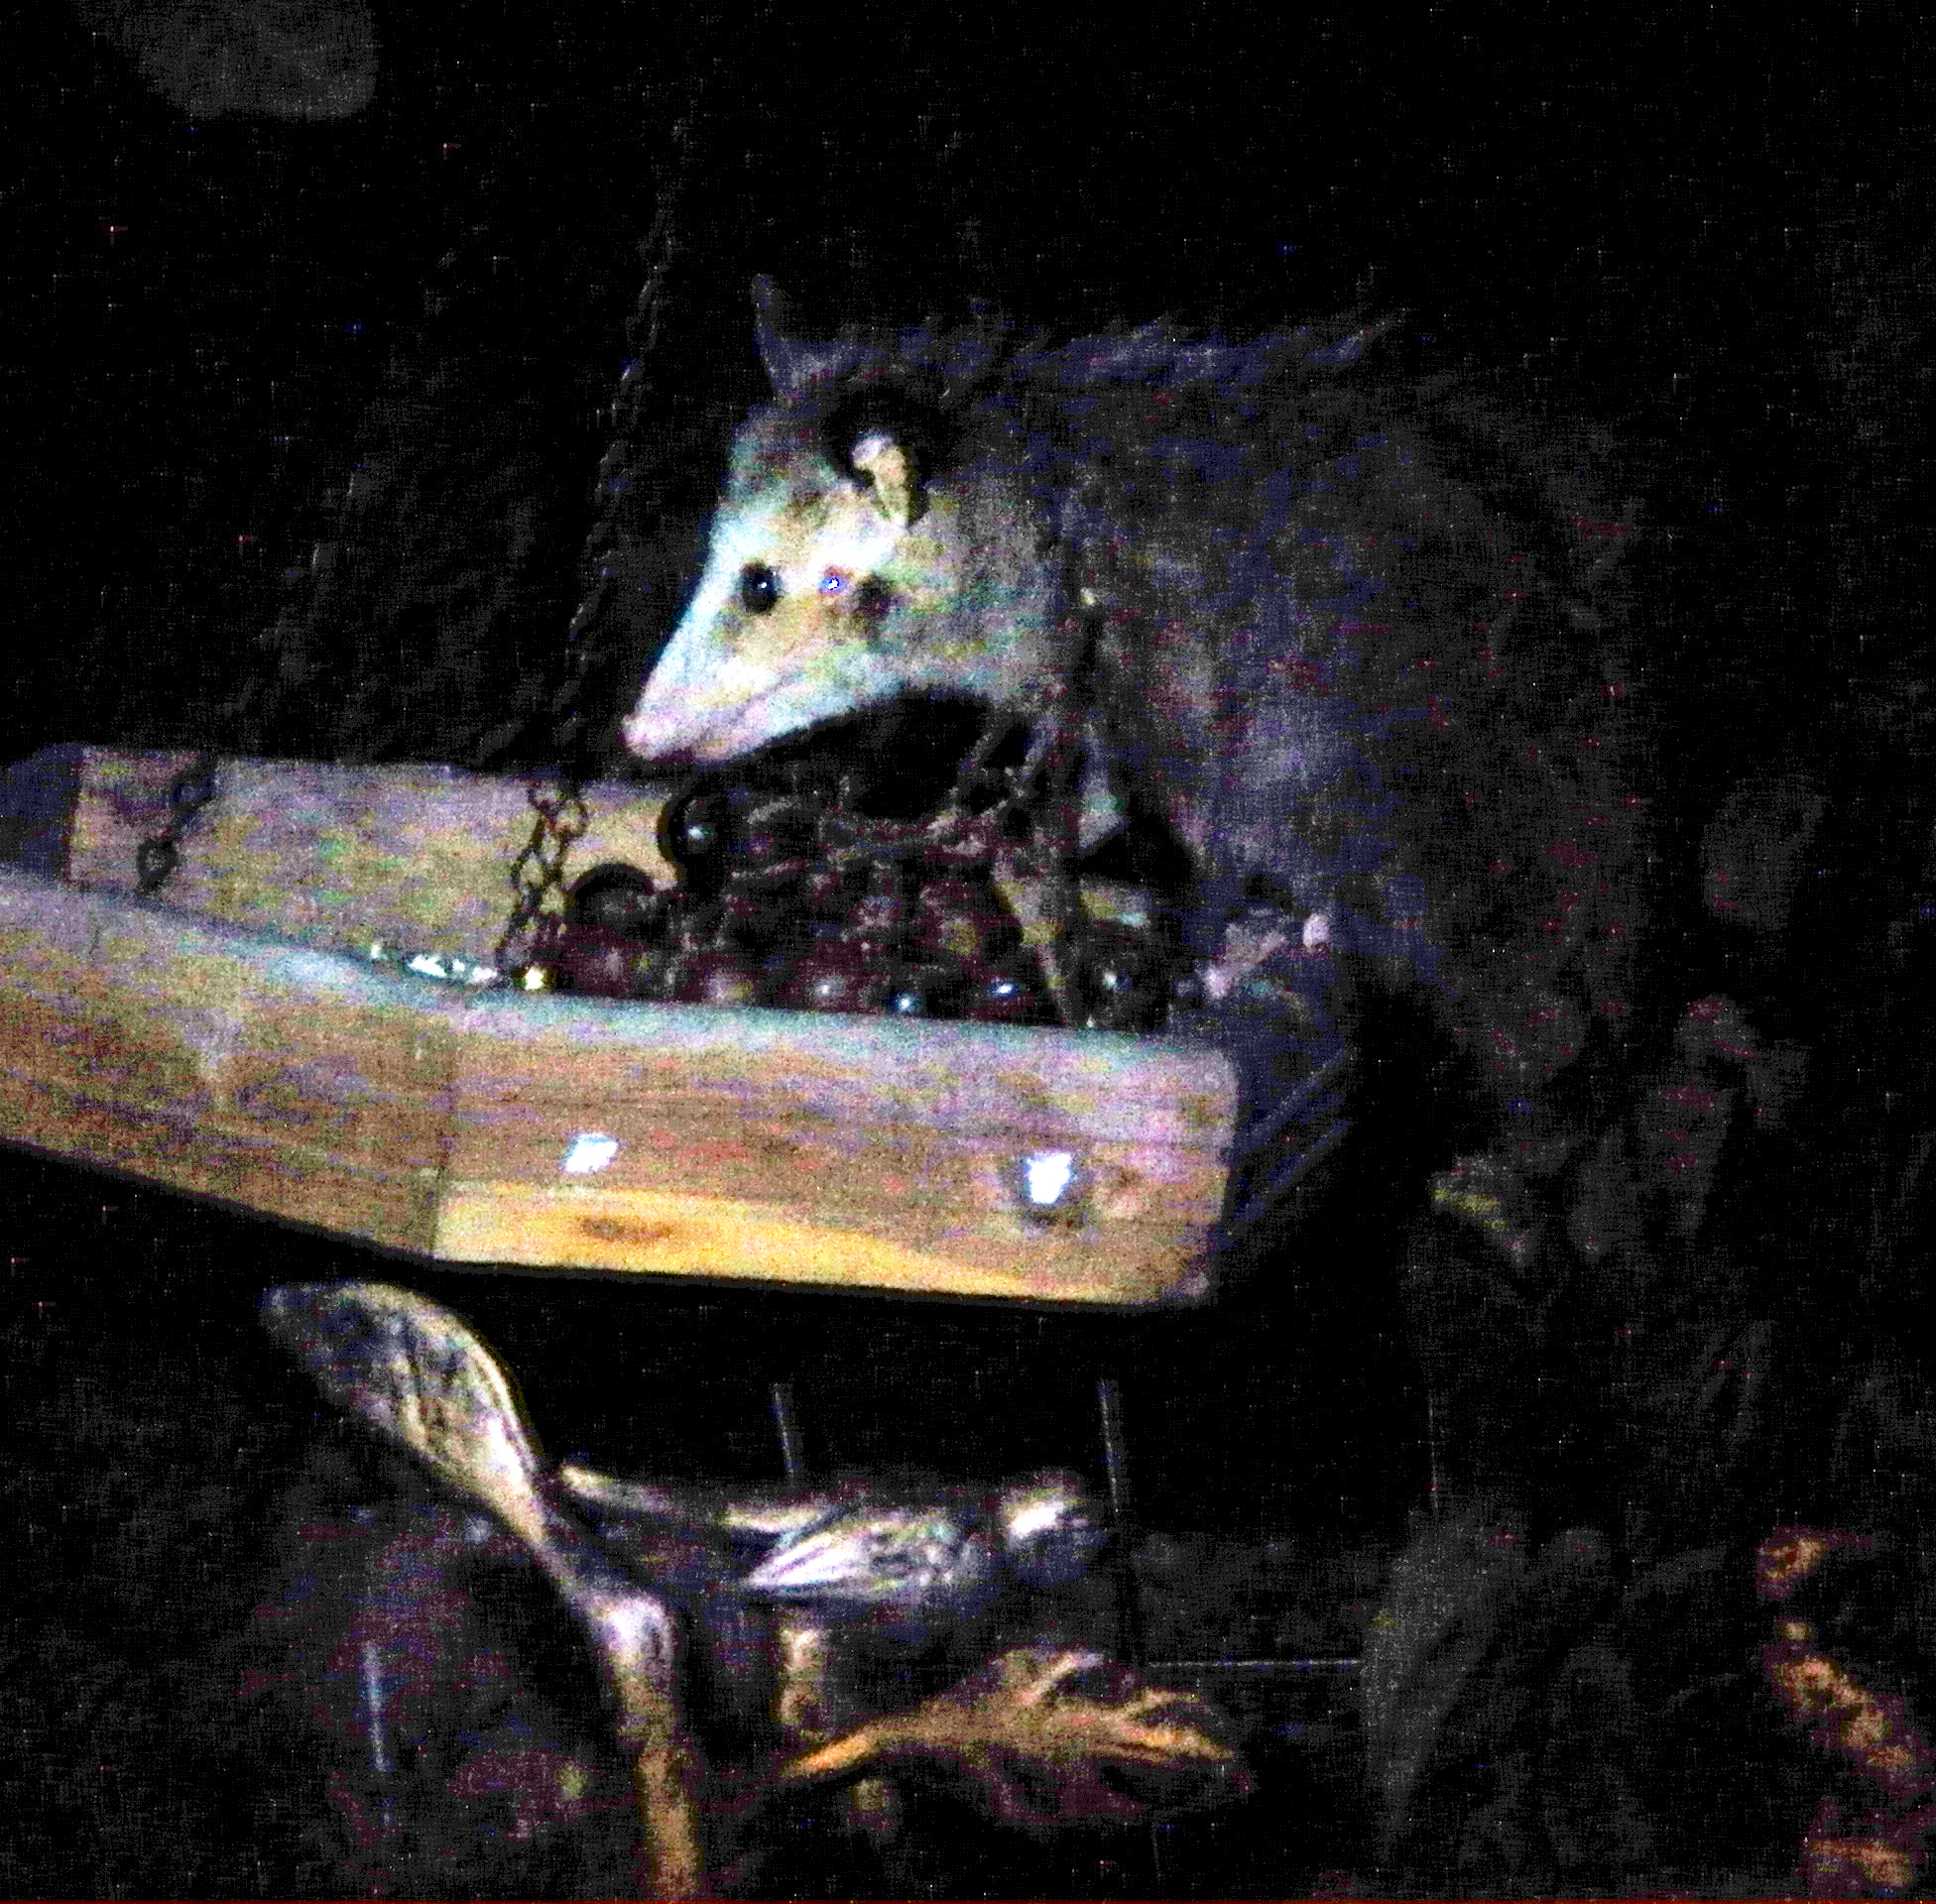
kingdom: Animalia
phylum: Chordata
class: Mammalia
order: Didelphimorphia
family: Didelphidae
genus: Didelphis
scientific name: Didelphis virginiana
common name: Virginia opossum
